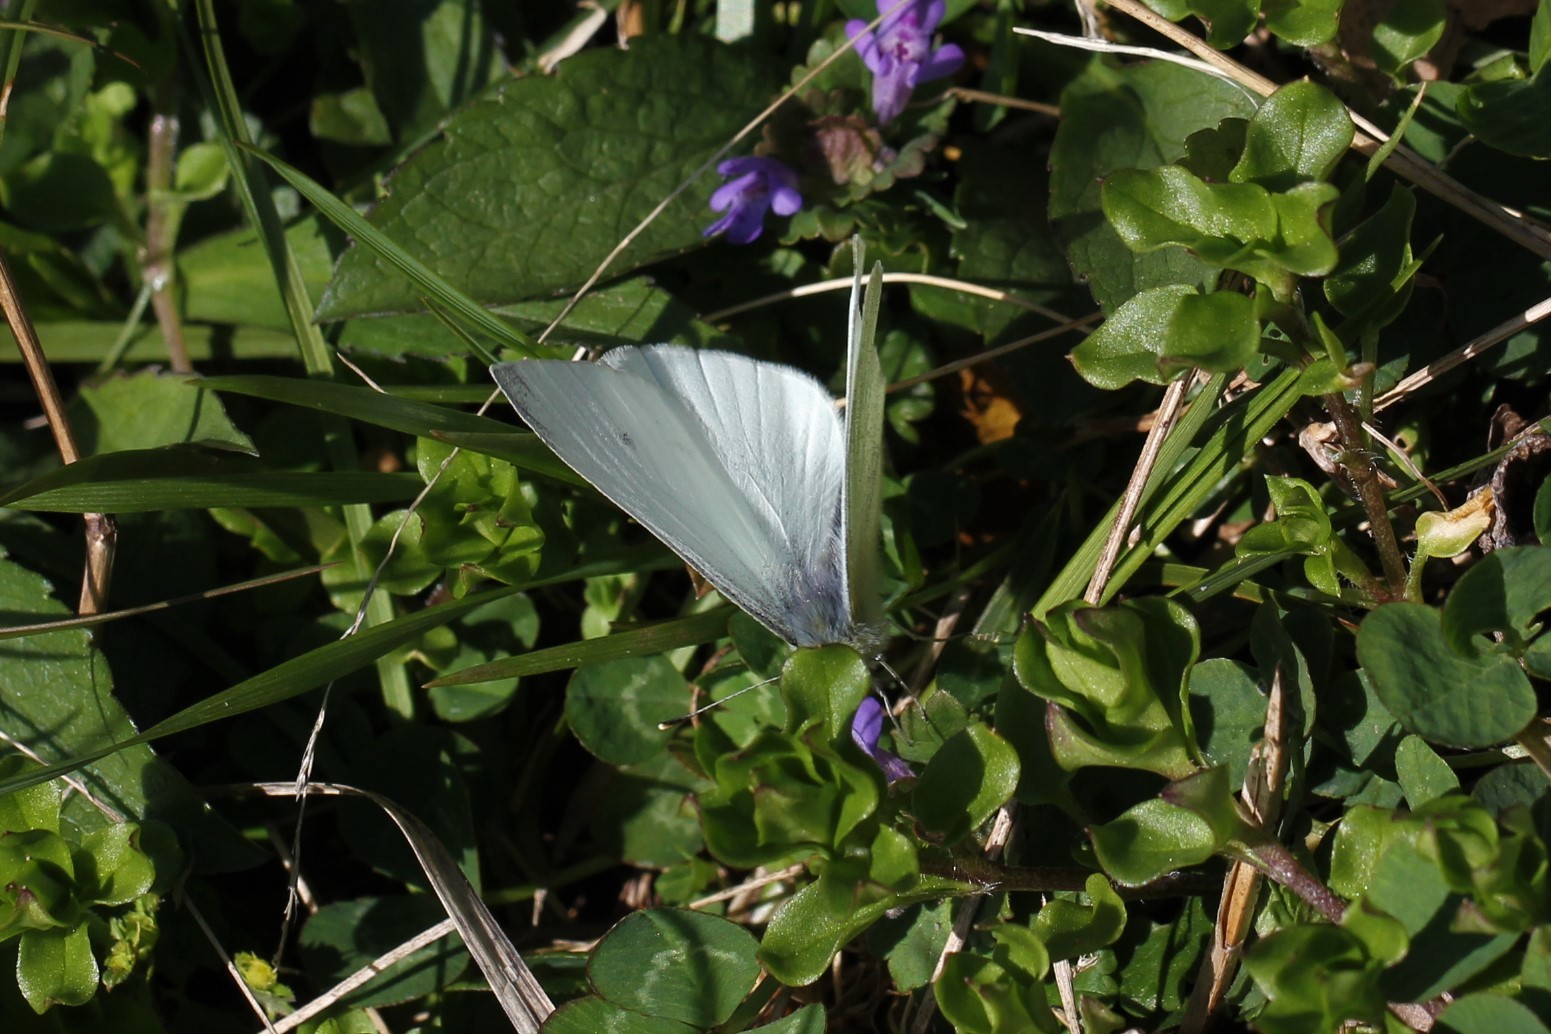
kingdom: Animalia
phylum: Arthropoda
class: Insecta
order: Lepidoptera
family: Pieridae
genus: Pieris
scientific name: Pieris rapae
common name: Small white
